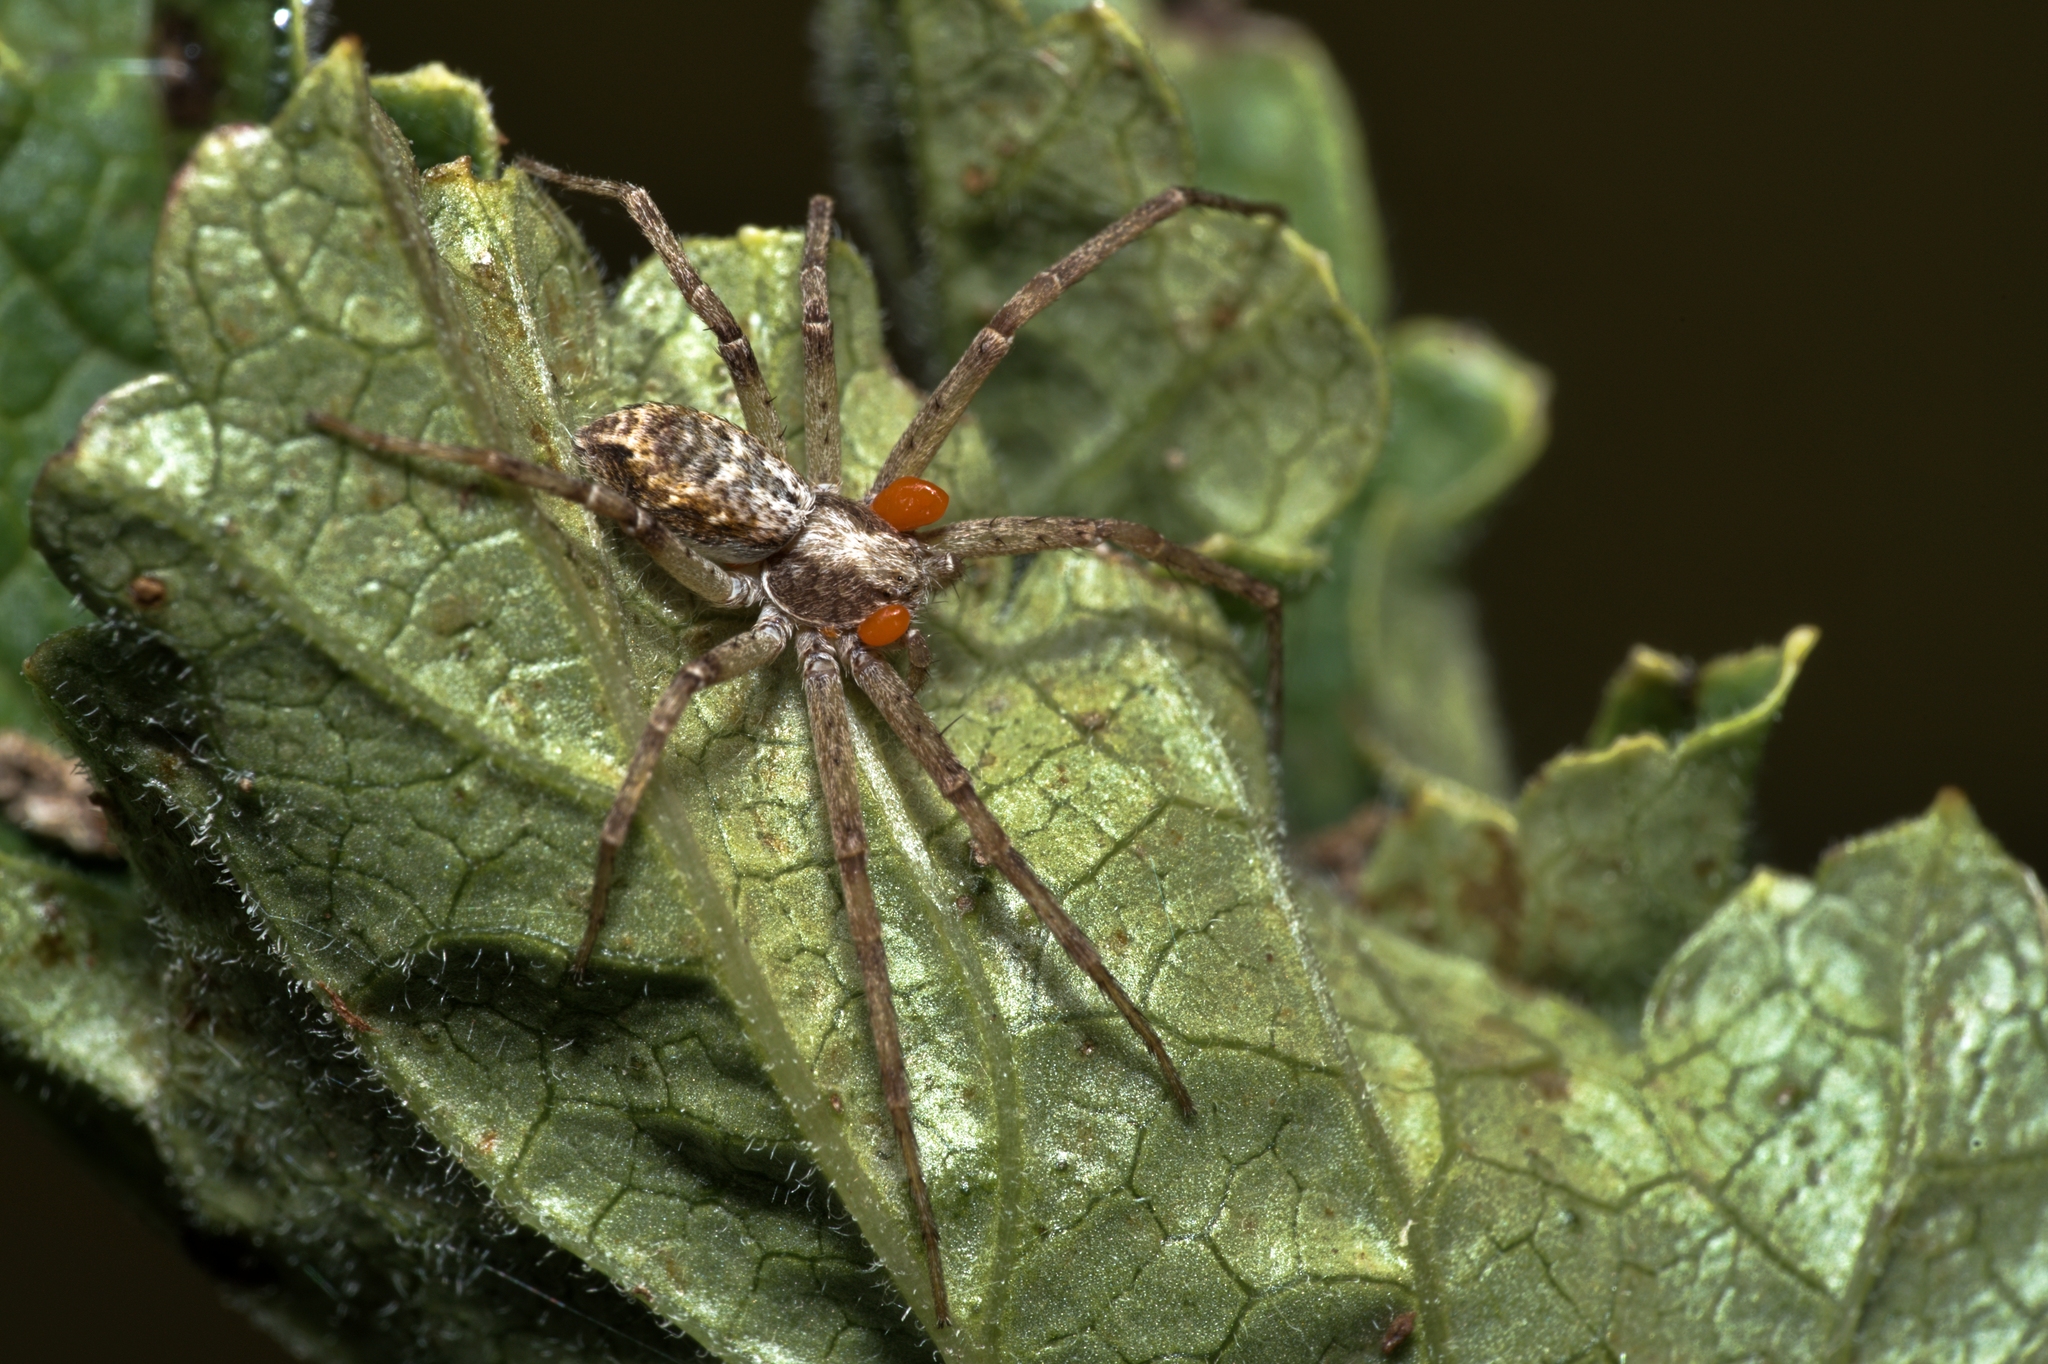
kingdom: Animalia
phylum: Arthropoda
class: Arachnida
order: Araneae
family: Philodromidae
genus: Philodromus
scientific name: Philodromus
